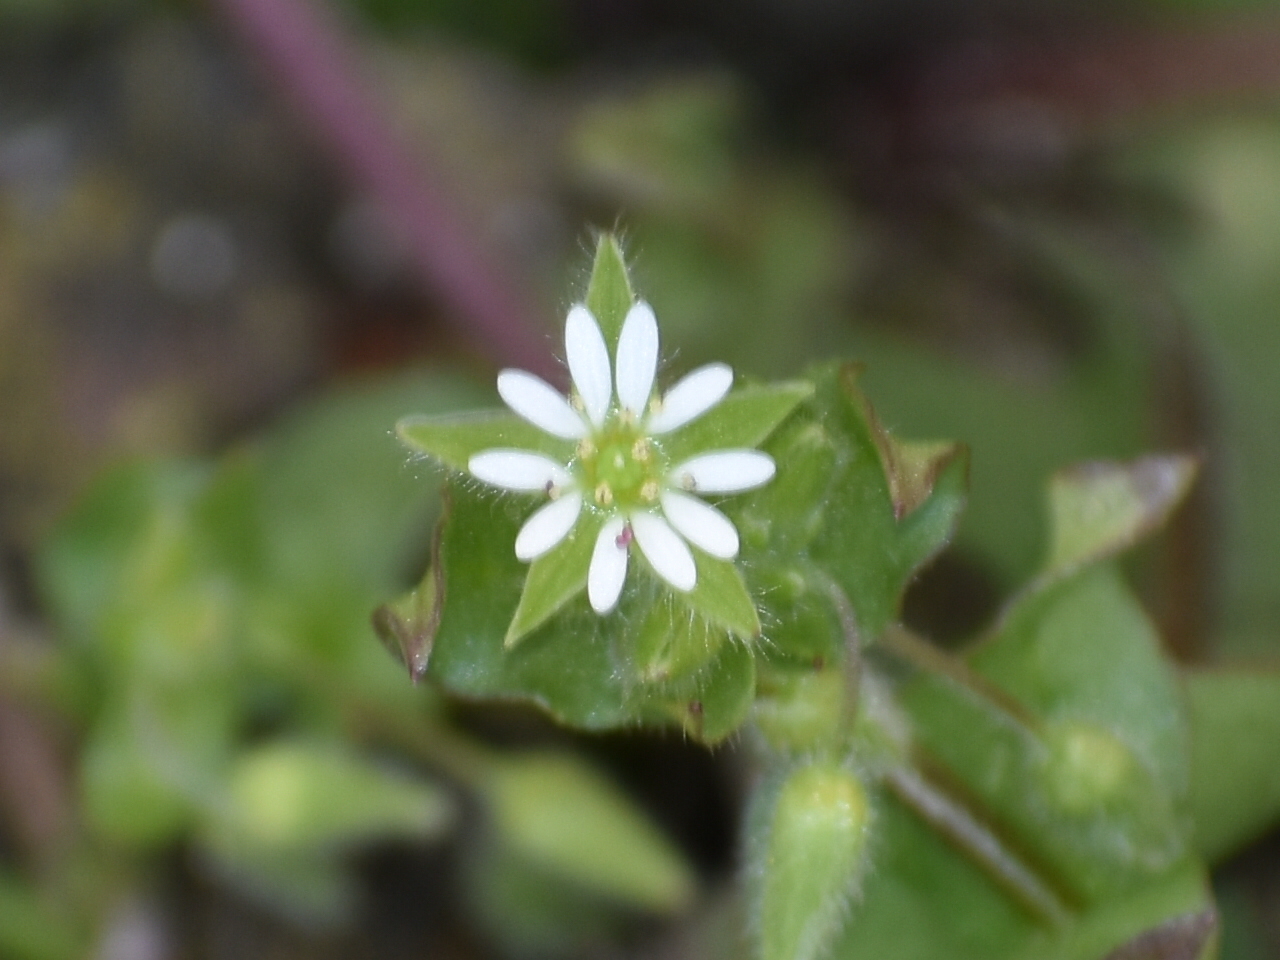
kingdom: Plantae
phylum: Tracheophyta
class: Magnoliopsida
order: Caryophyllales
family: Caryophyllaceae
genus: Stellaria
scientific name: Stellaria media
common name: Common chickweed
